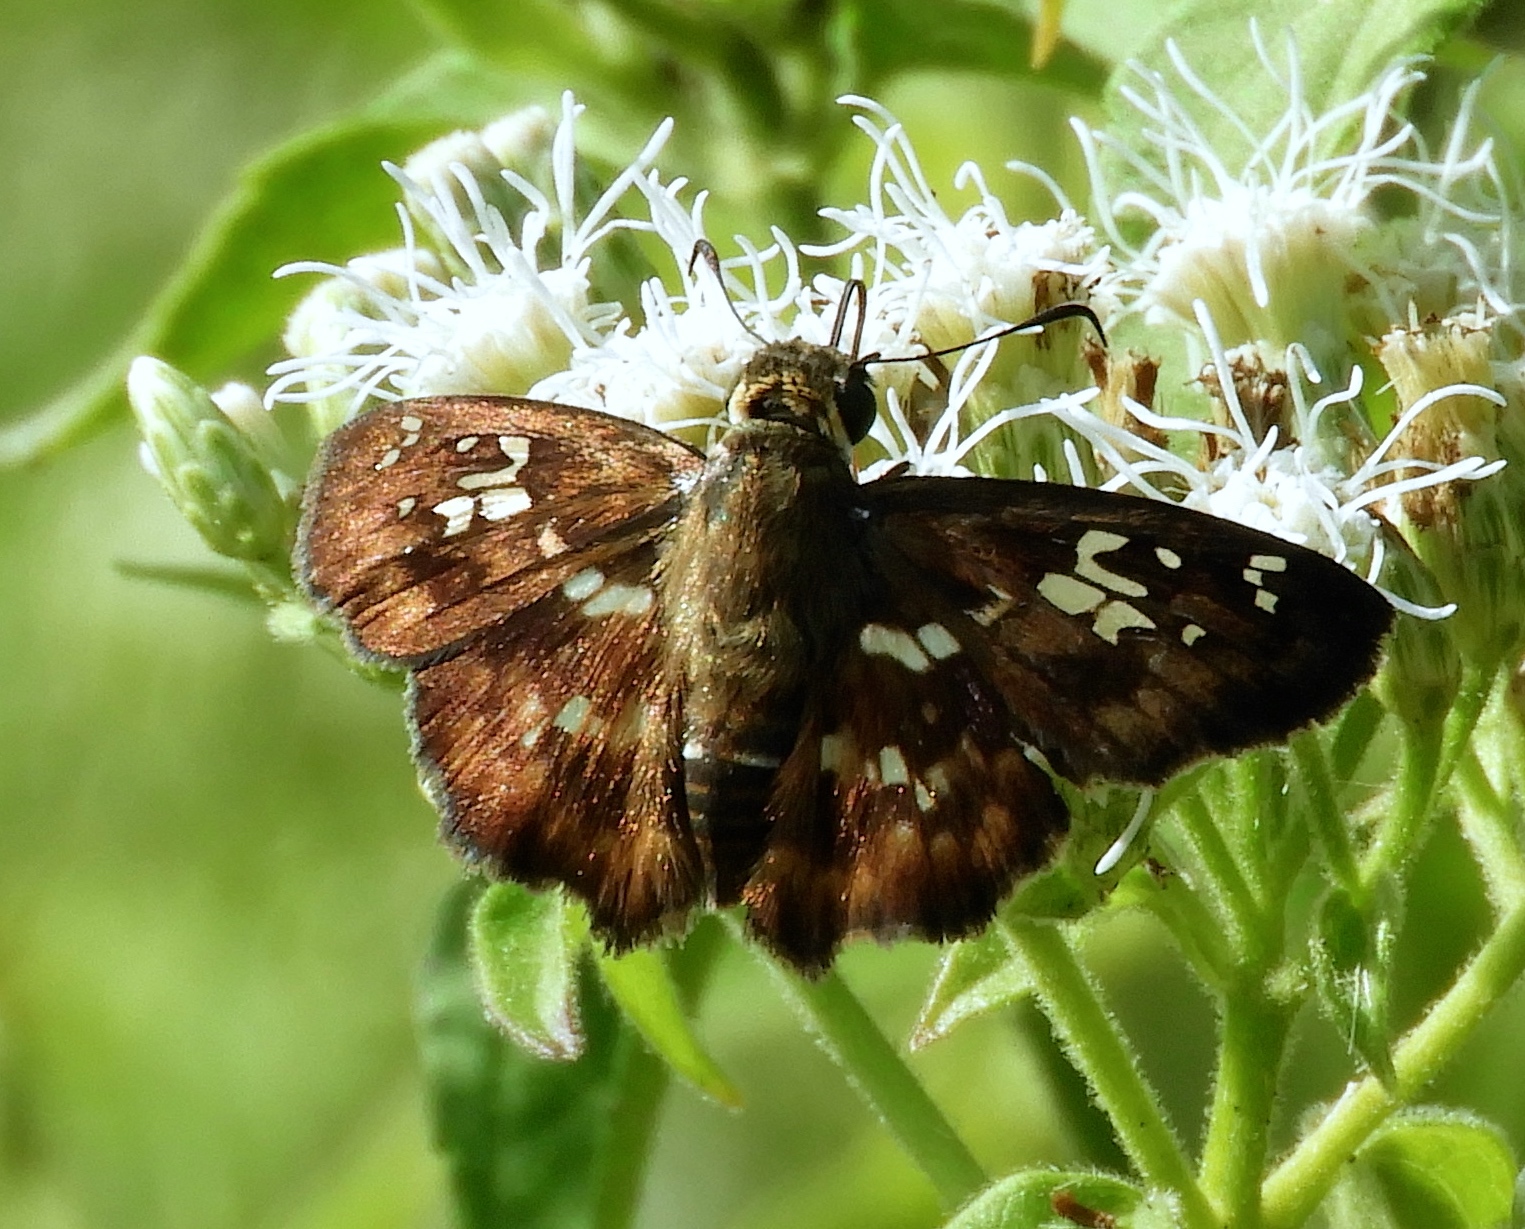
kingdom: Animalia
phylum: Arthropoda
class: Insecta
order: Lepidoptera
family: Hesperiidae
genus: Udranomia
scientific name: Udranomia kikkawai
